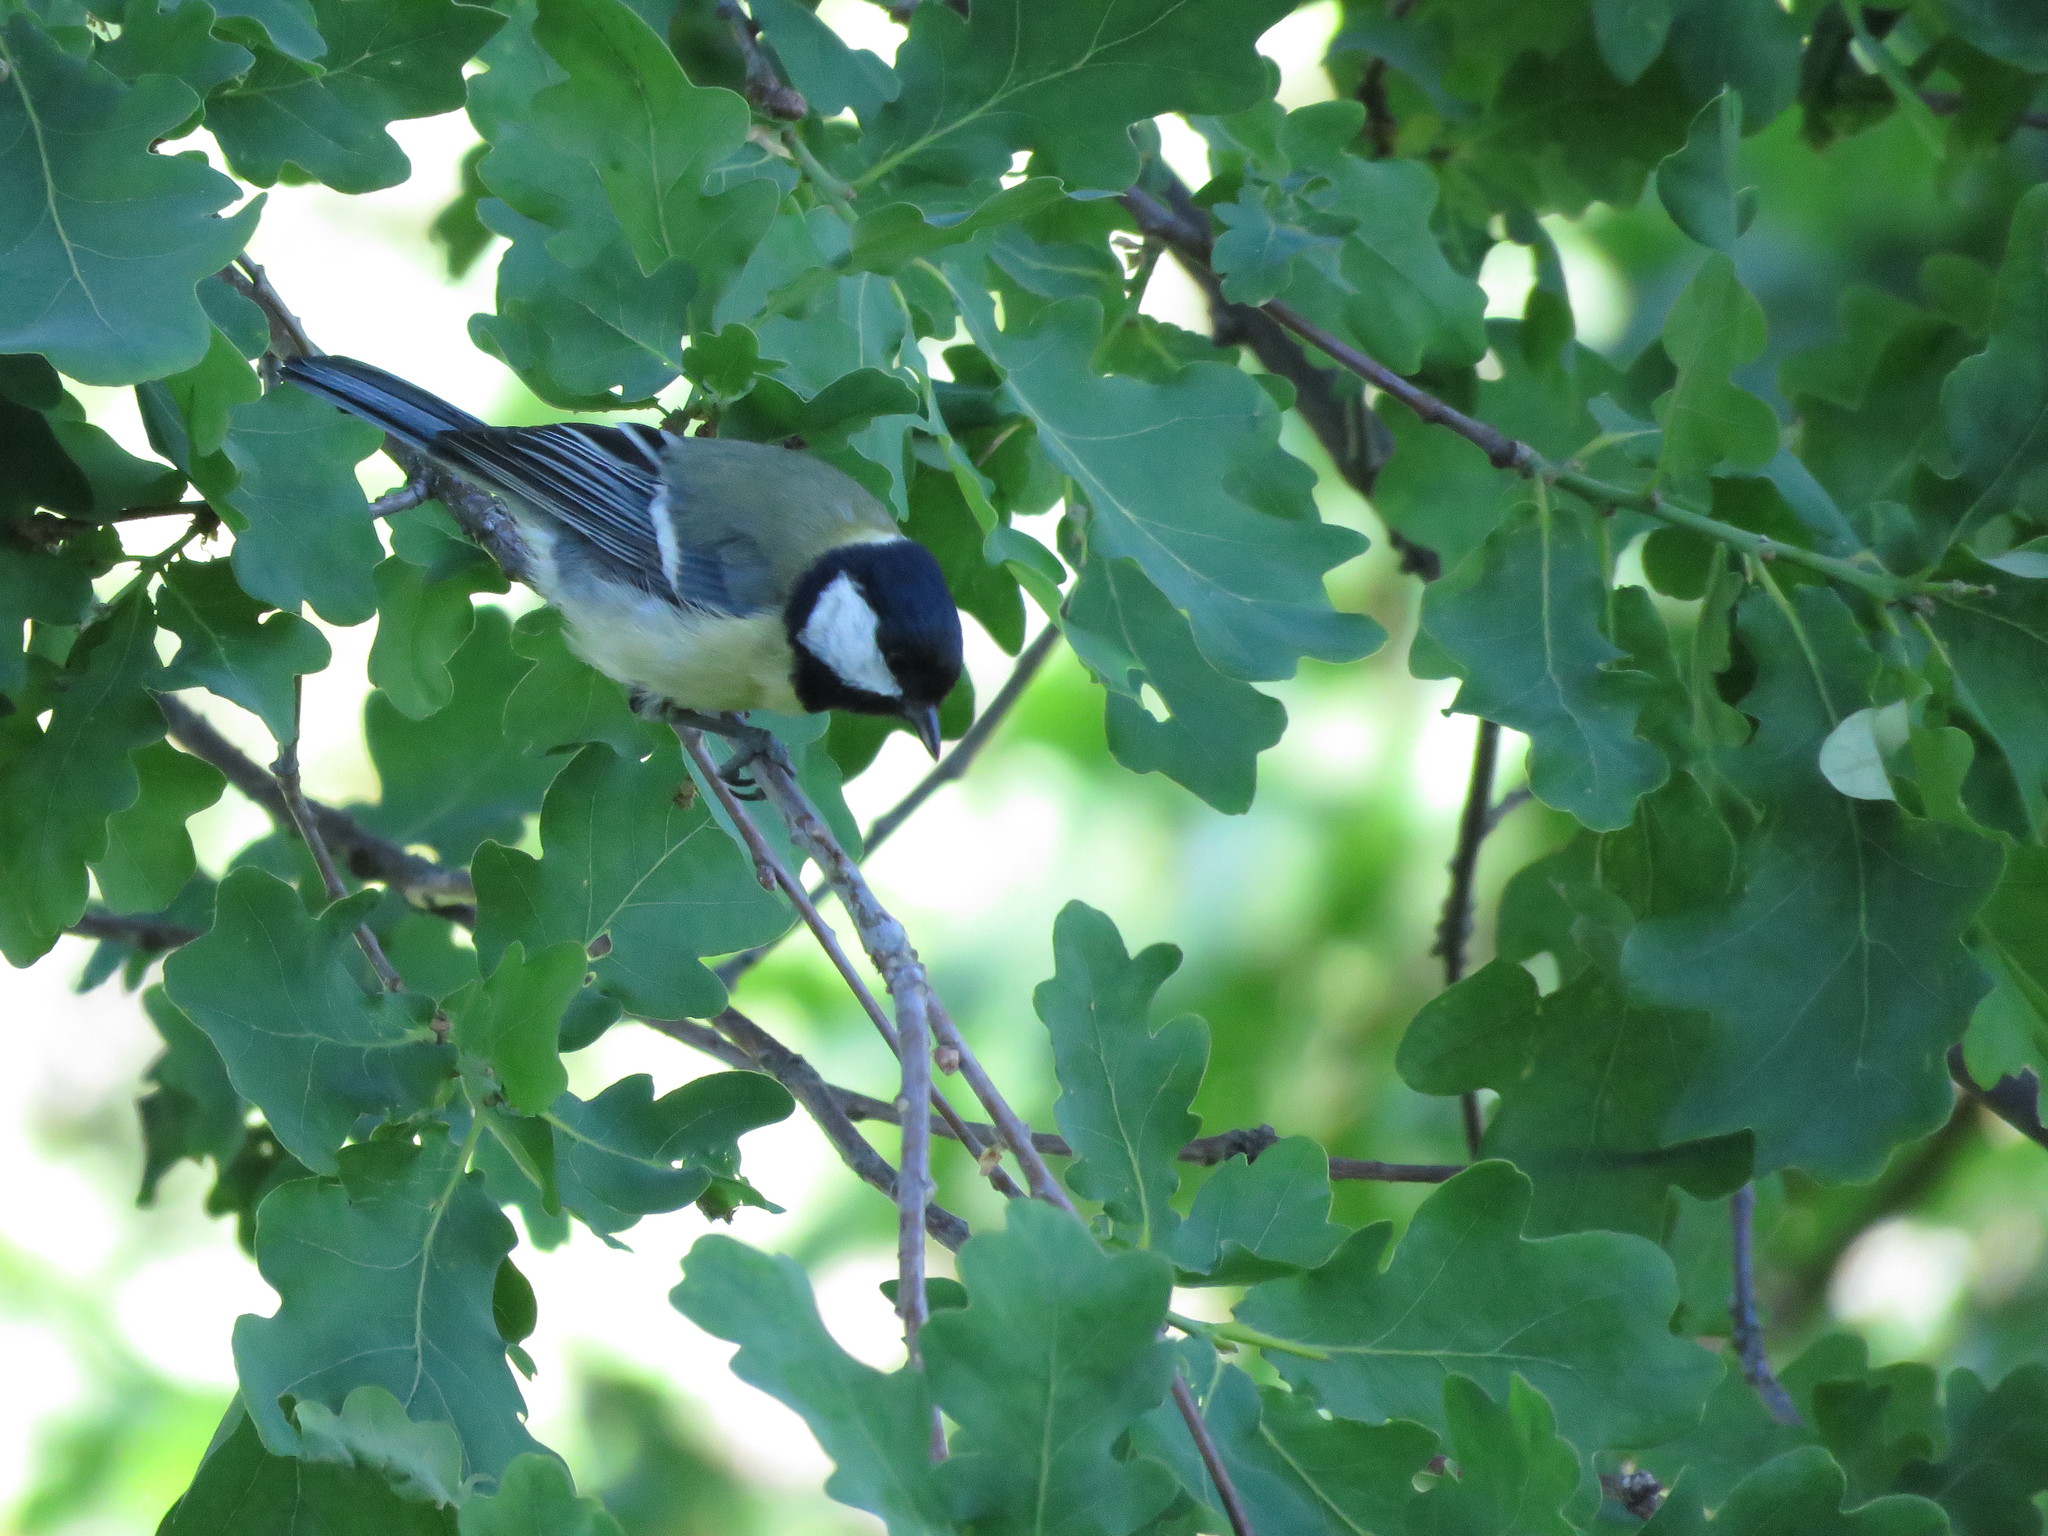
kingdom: Animalia
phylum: Chordata
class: Aves
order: Passeriformes
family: Paridae
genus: Parus
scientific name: Parus major
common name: Great tit
